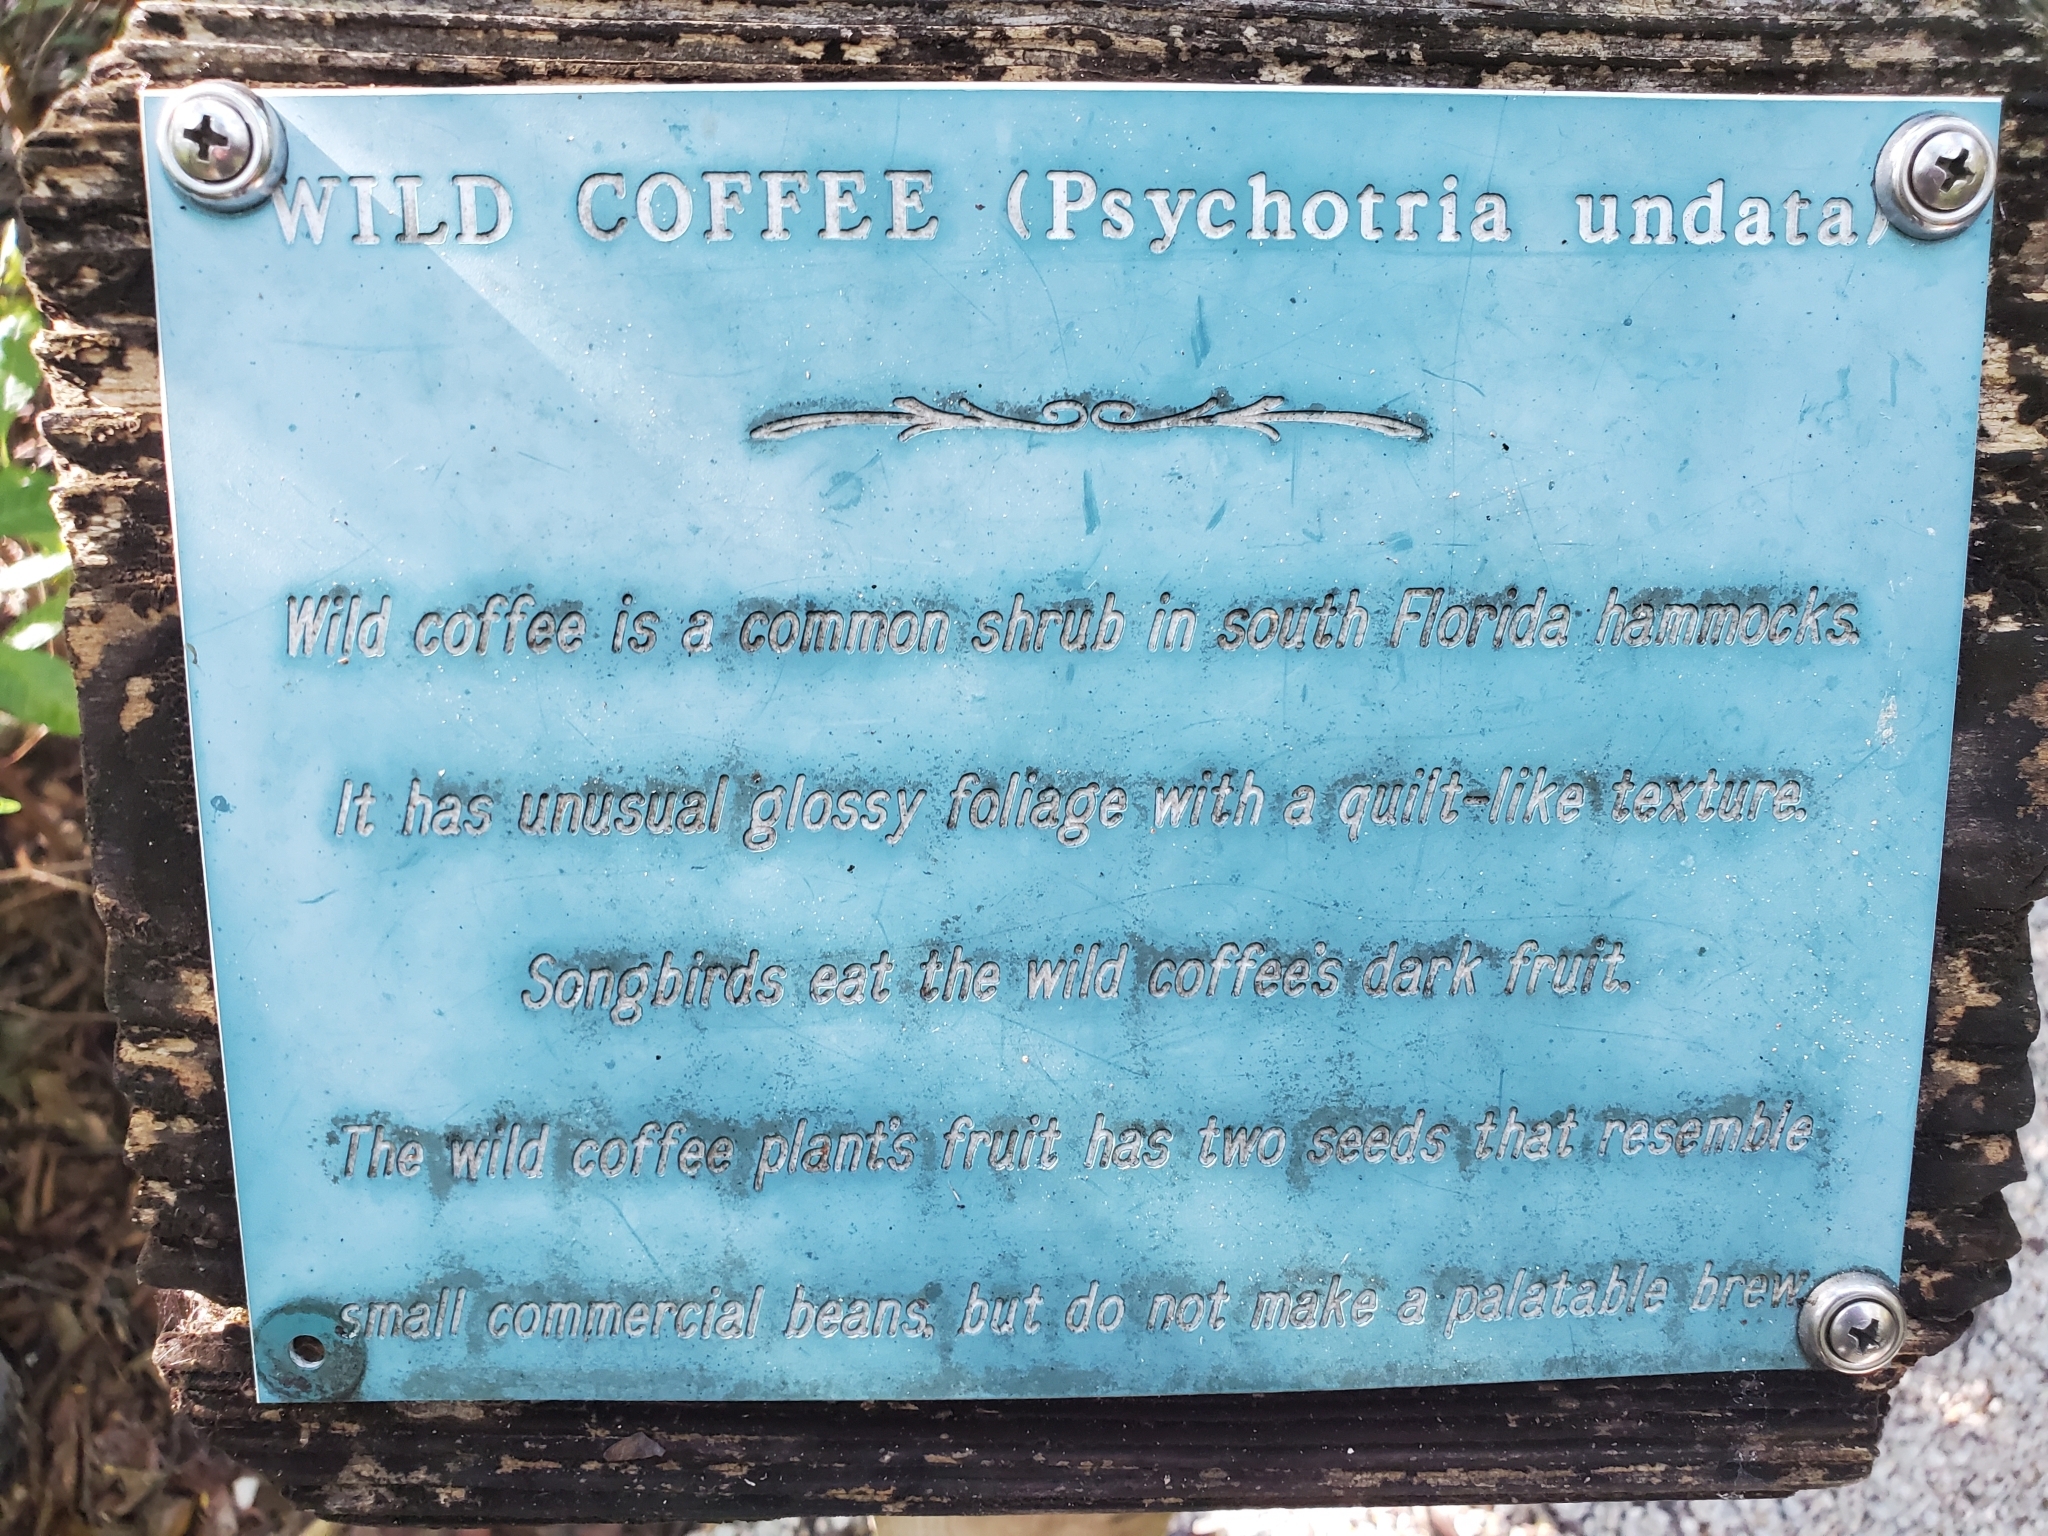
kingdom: Plantae
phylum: Tracheophyta
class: Magnoliopsida
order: Gentianales
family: Rubiaceae
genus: Psychotria
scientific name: Psychotria nervosa
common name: Bastard cankerberry
